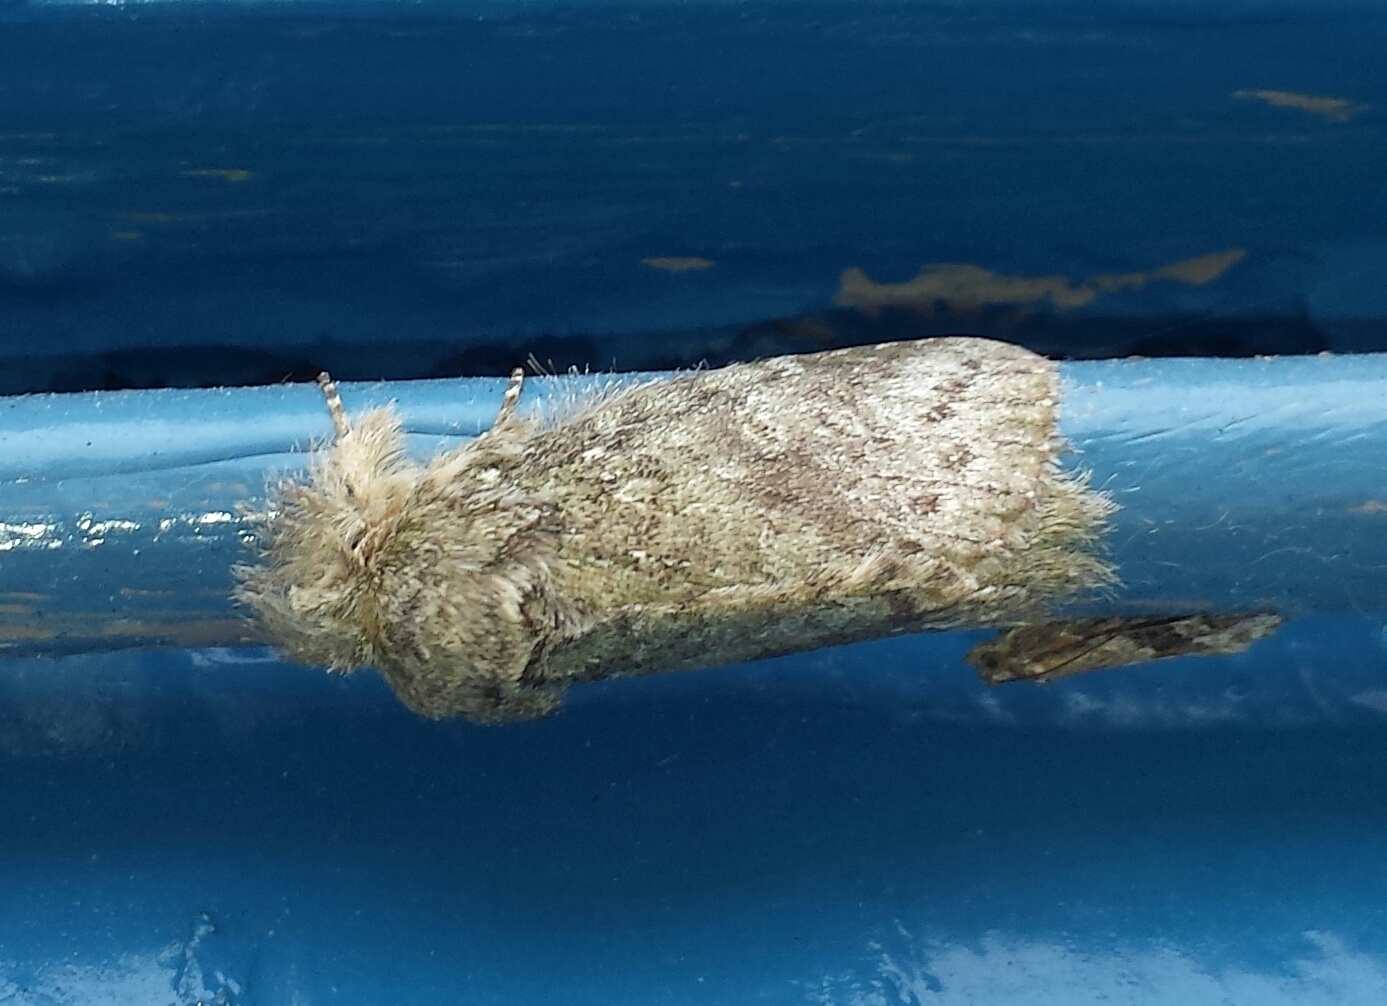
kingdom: Animalia
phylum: Arthropoda
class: Insecta
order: Lepidoptera
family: Notodontidae
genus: Disphragis
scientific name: Disphragis Cecrita guttivitta
